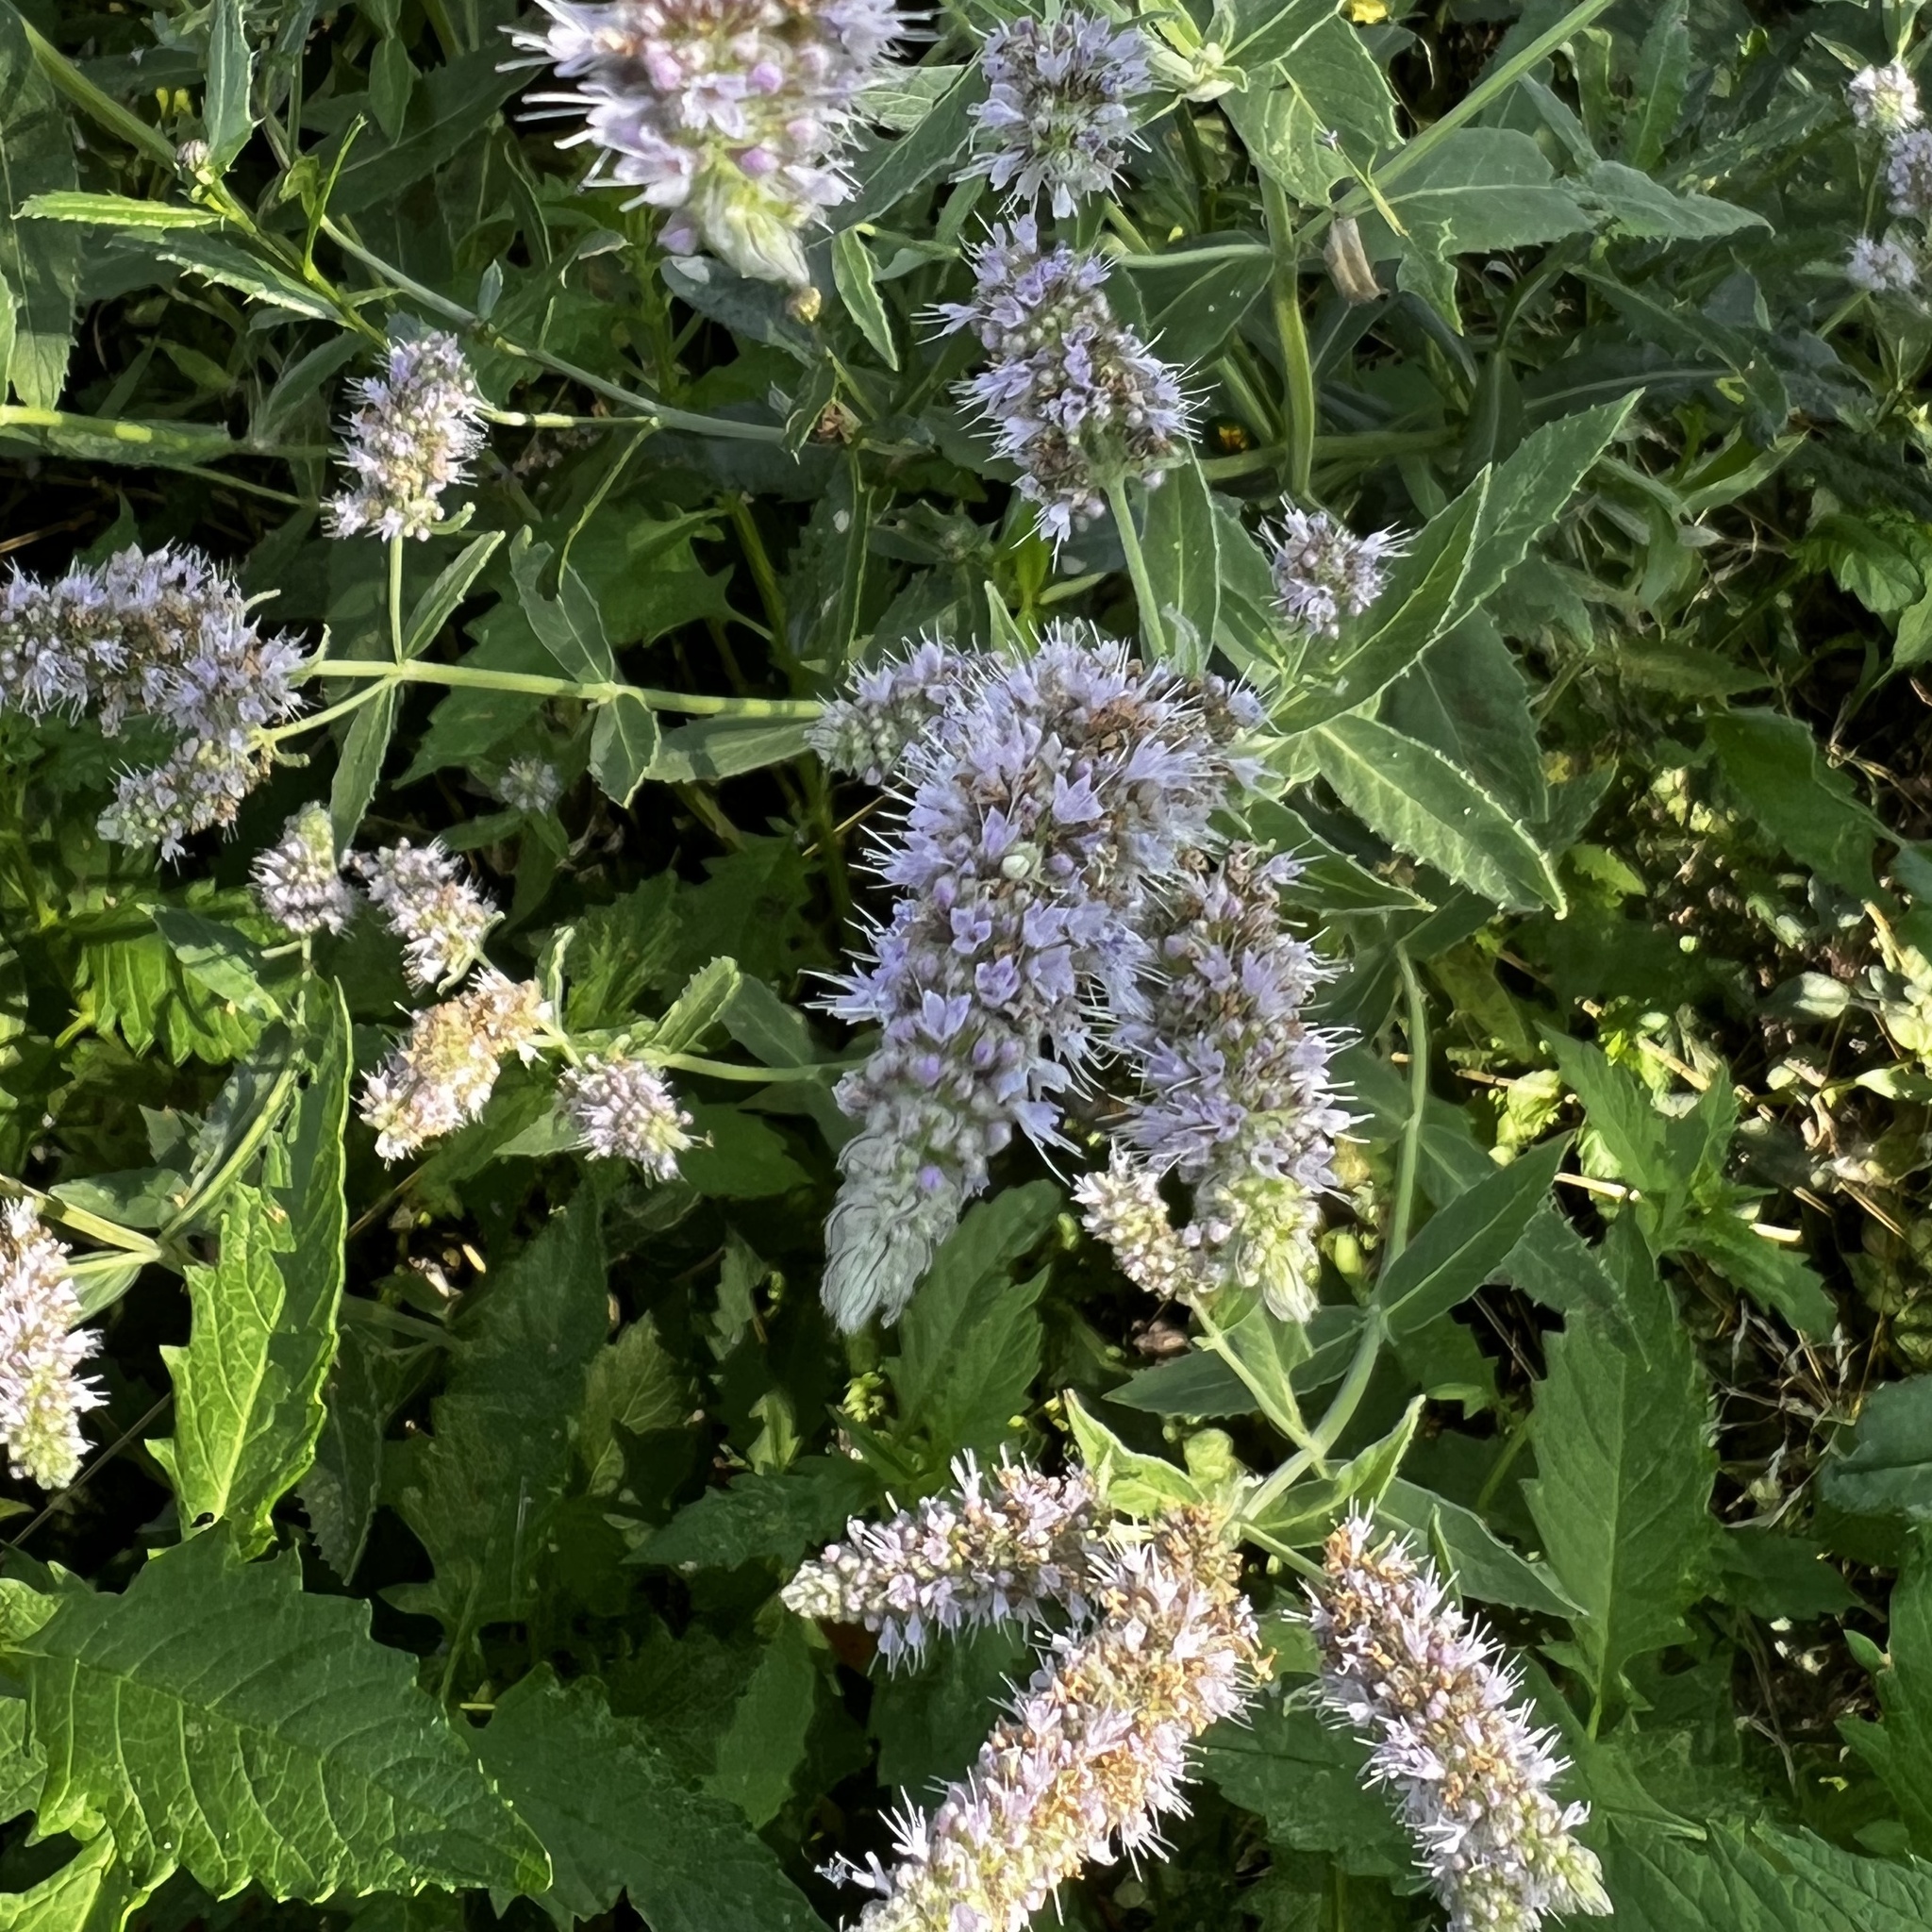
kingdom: Plantae
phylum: Tracheophyta
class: Magnoliopsida
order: Lamiales
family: Lamiaceae
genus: Mentha
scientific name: Mentha longifolia
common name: Horse mint
